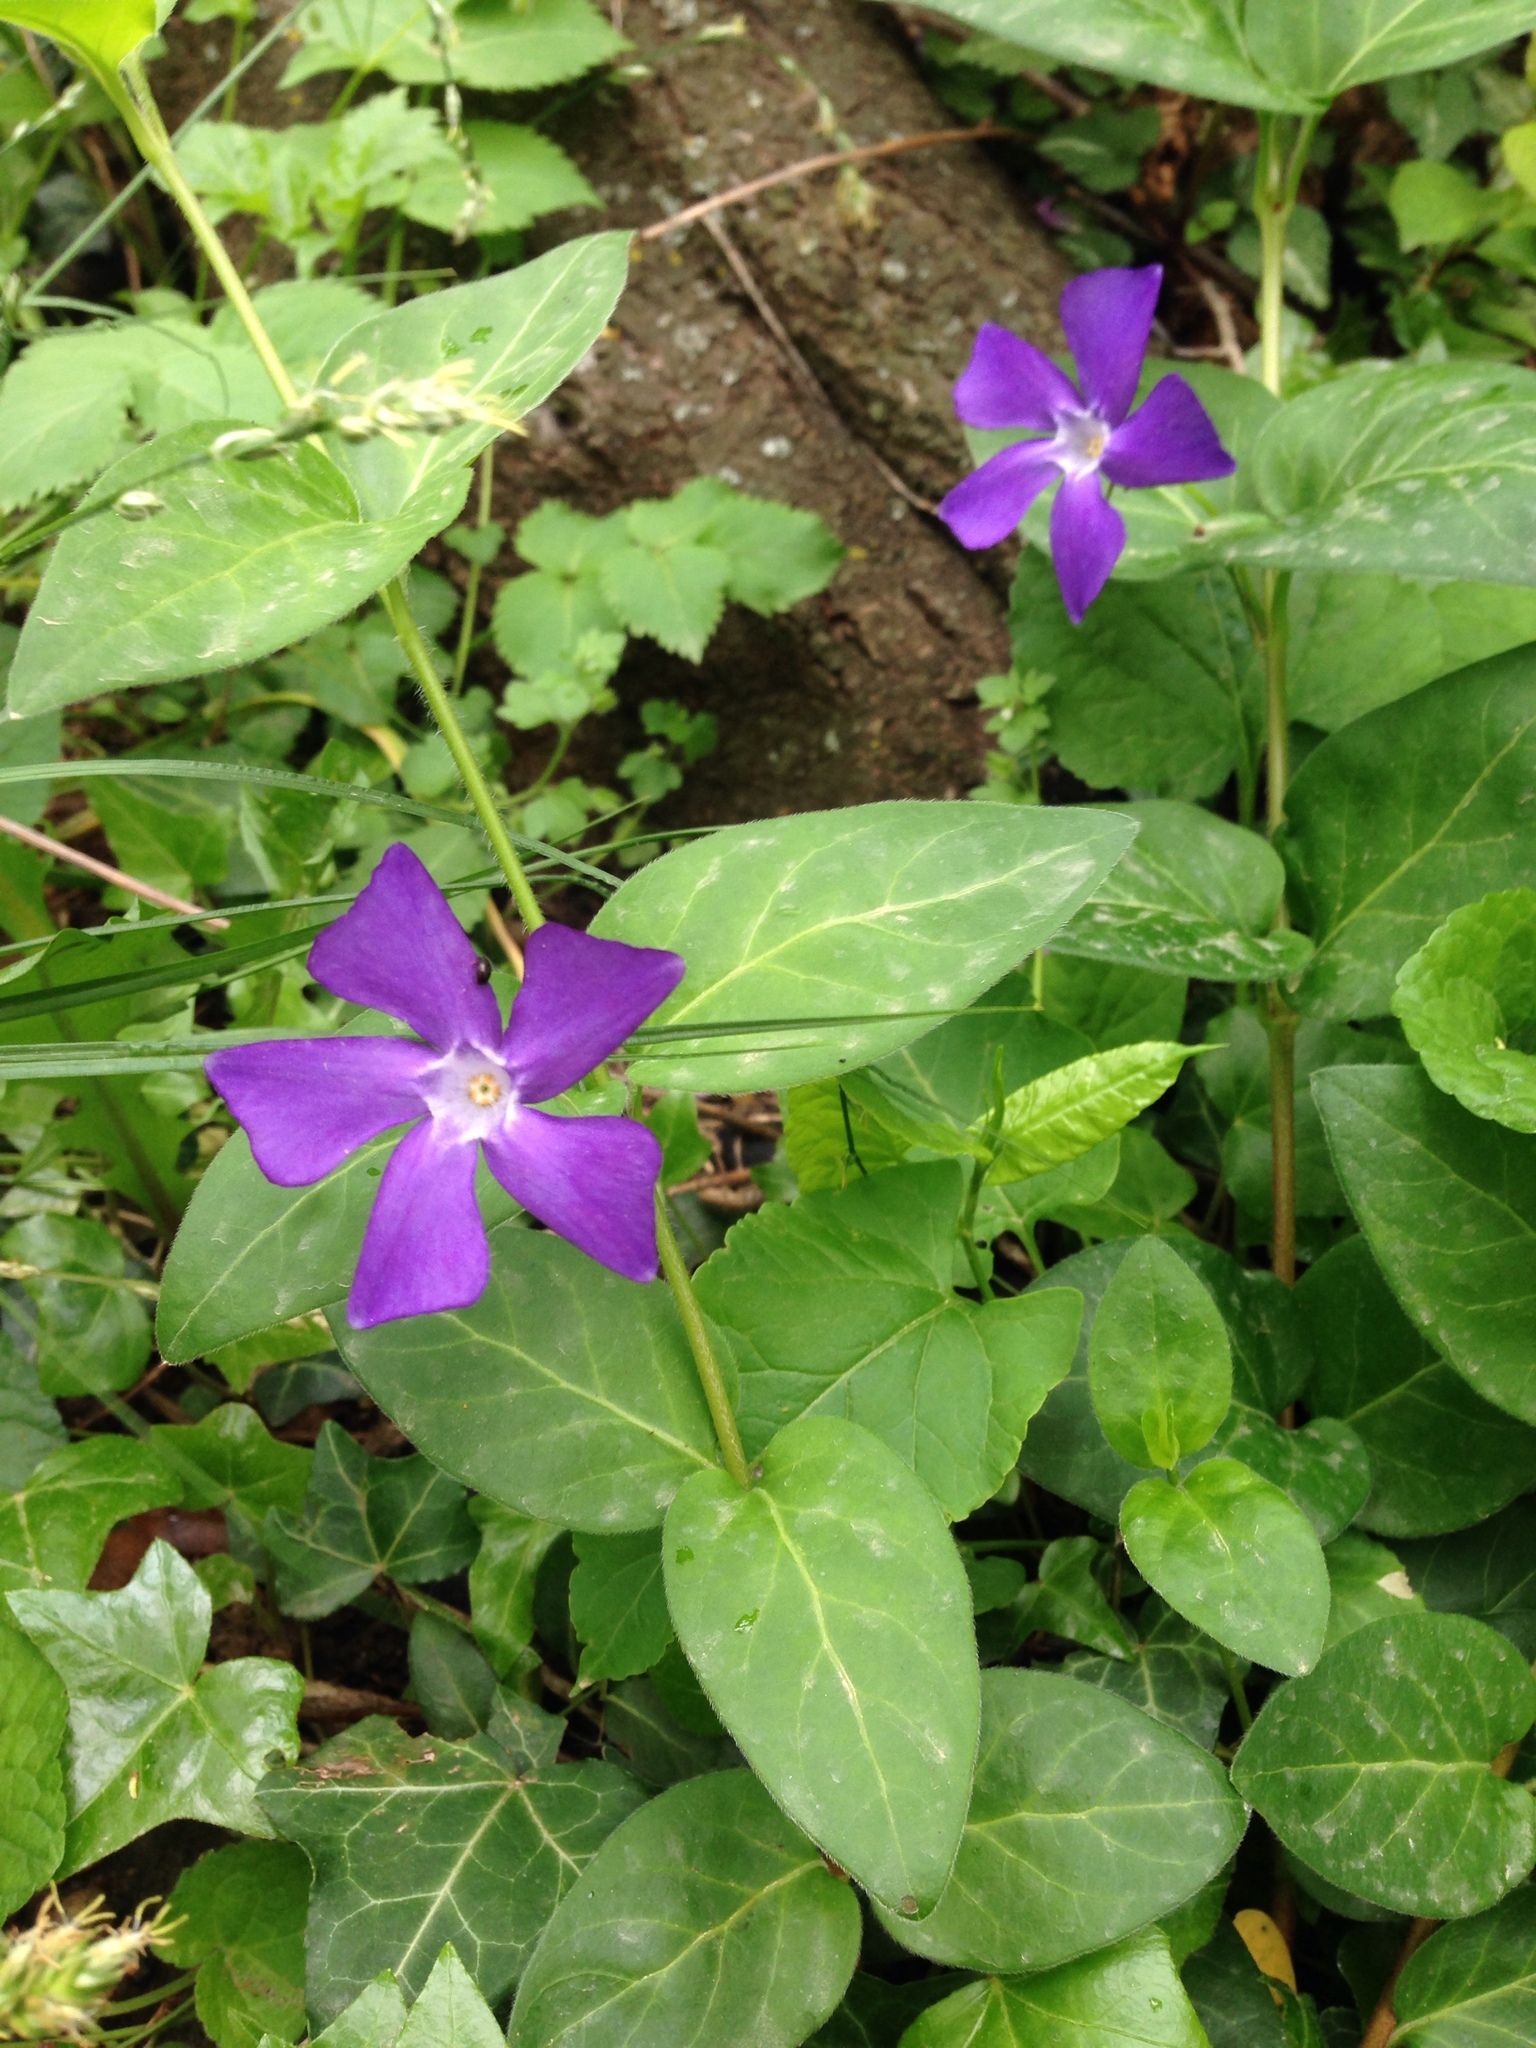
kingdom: Plantae
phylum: Tracheophyta
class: Magnoliopsida
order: Gentianales
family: Apocynaceae
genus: Vinca
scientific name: Vinca minor
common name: Lesser periwinkle
